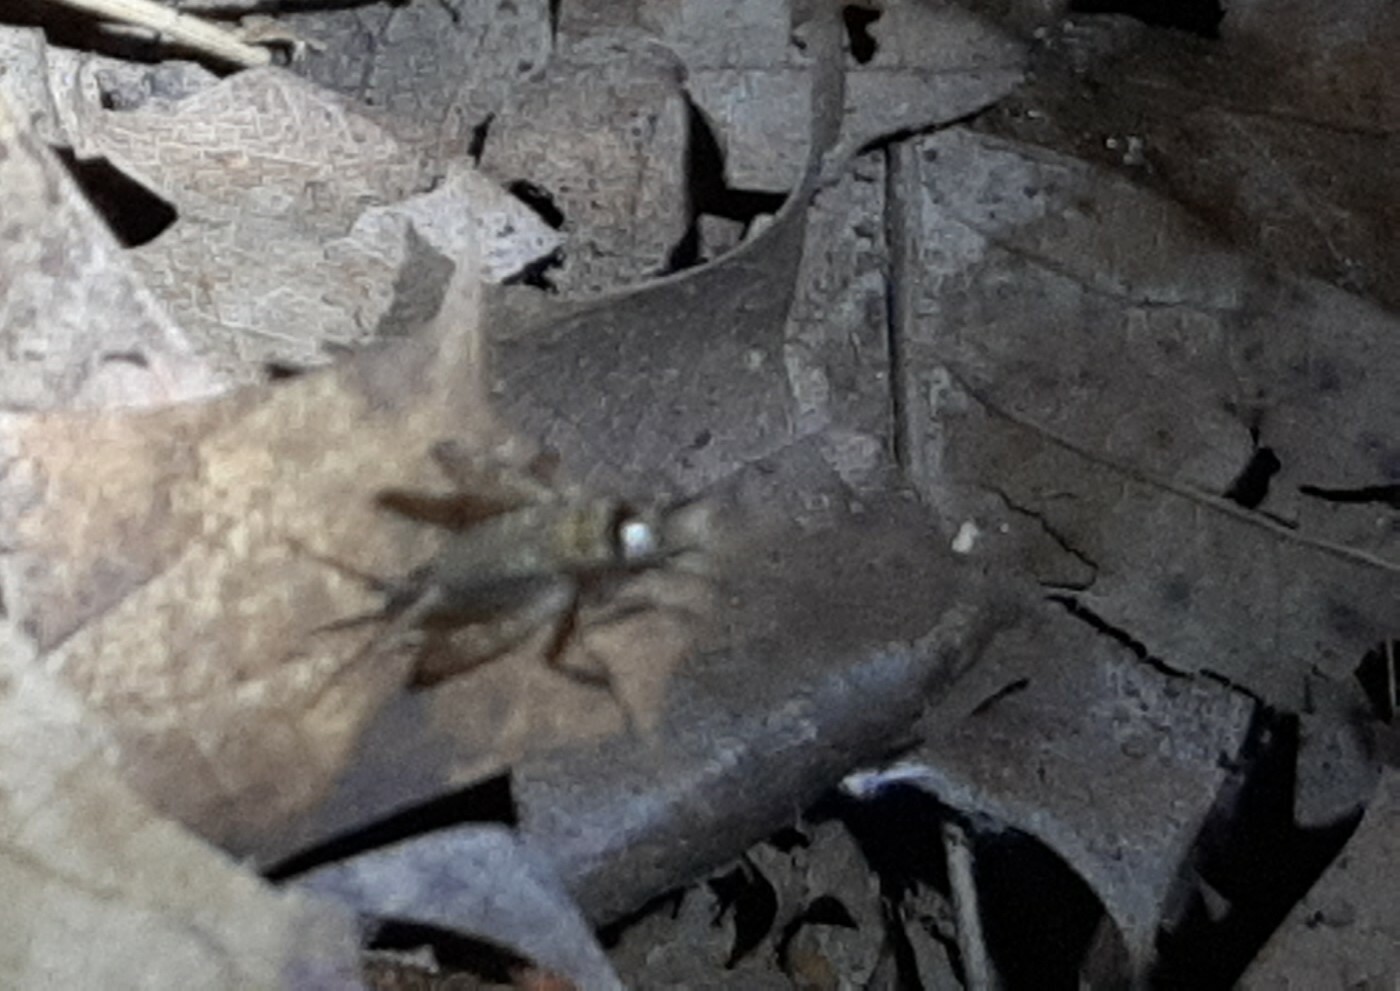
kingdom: Animalia
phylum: Arthropoda
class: Insecta
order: Orthoptera
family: Trigonidiidae
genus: Nemobius
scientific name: Nemobius sylvestris
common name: Wood-cricket
